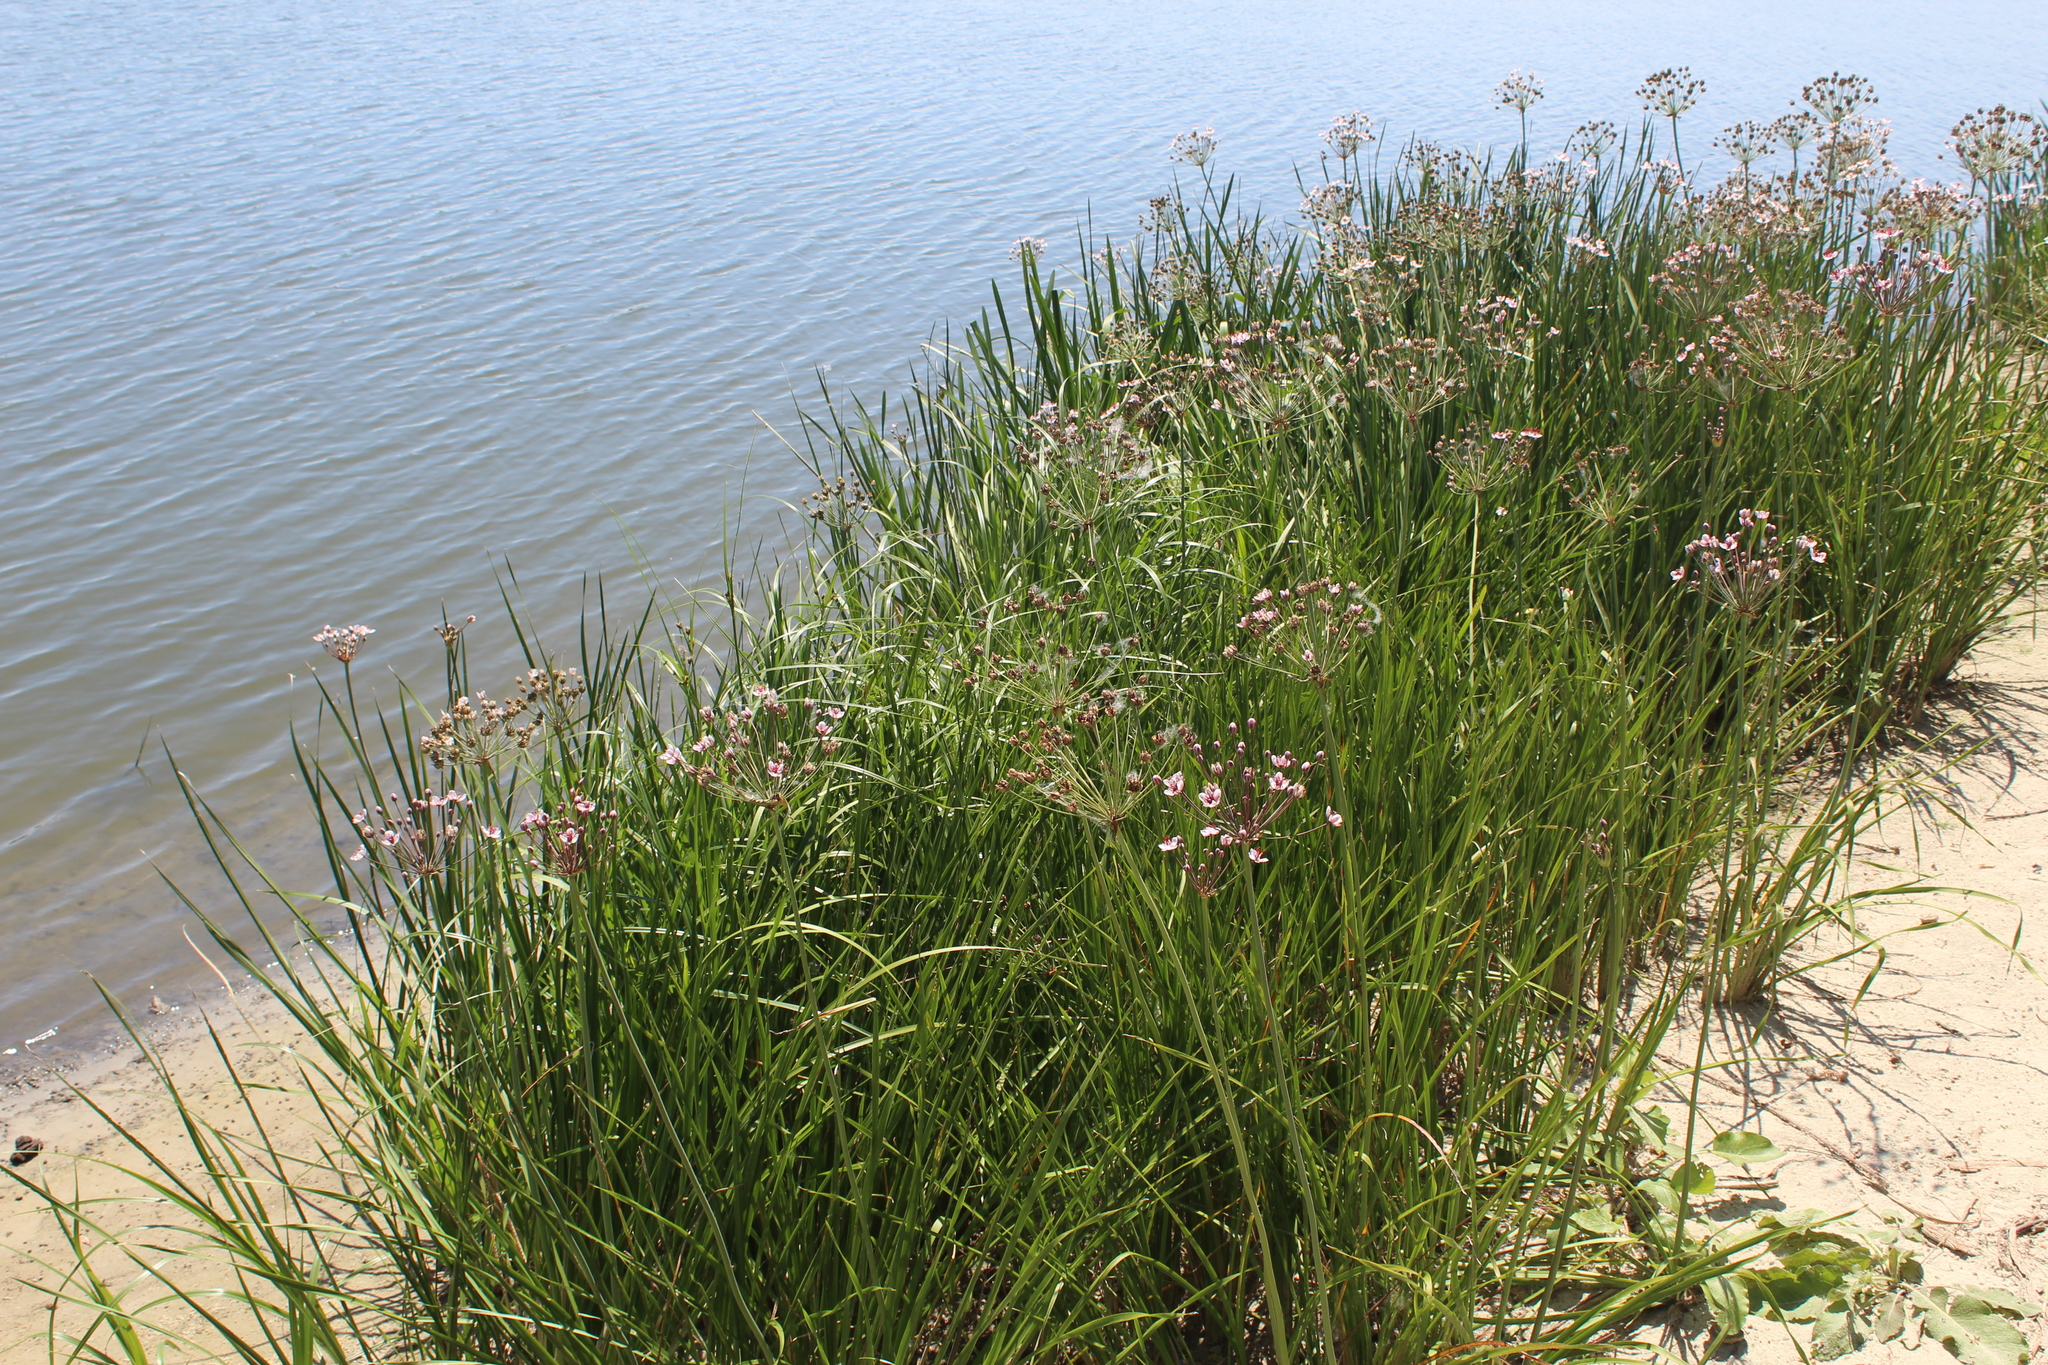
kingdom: Plantae
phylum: Tracheophyta
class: Liliopsida
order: Alismatales
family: Butomaceae
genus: Butomus
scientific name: Butomus umbellatus
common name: Flowering-rush
